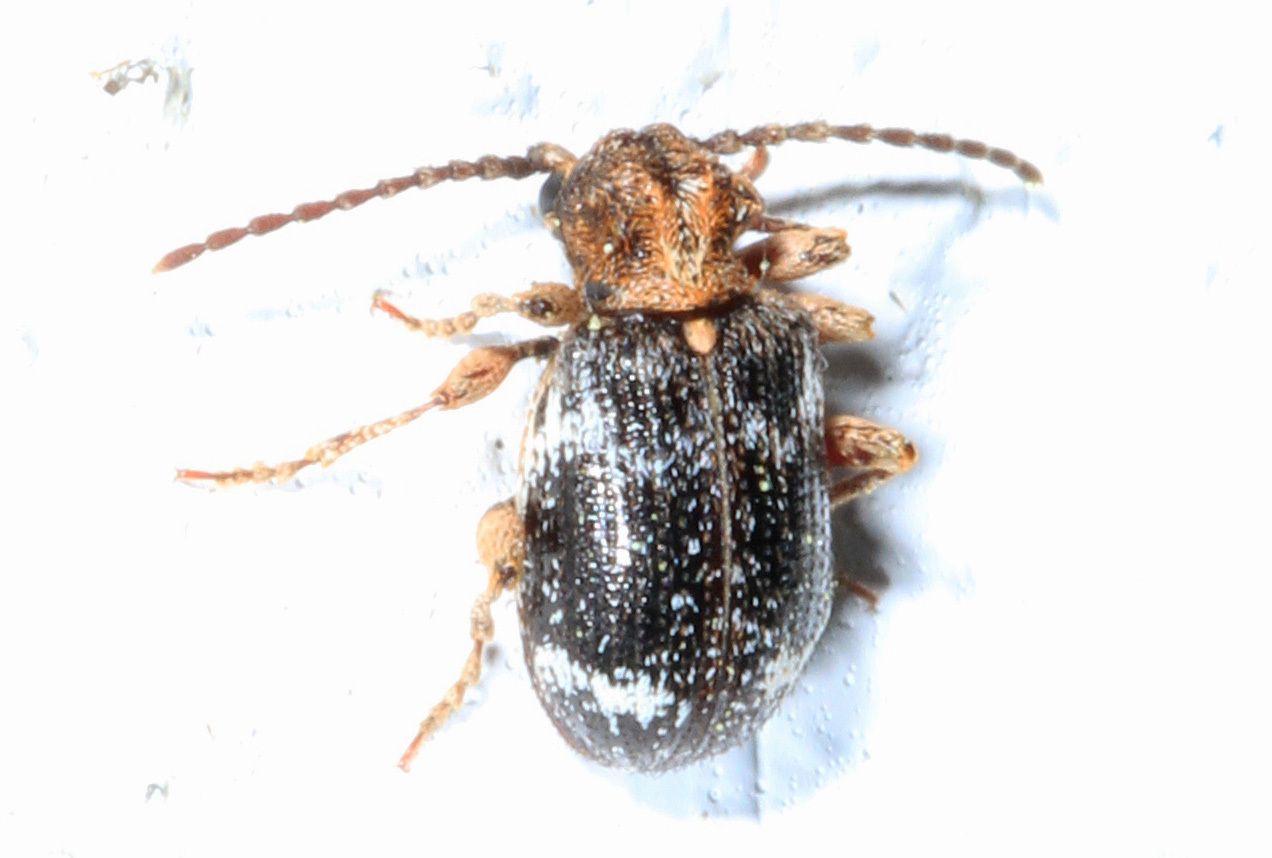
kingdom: Animalia
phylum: Arthropoda
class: Insecta
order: Coleoptera
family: Ptinidae
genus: Ptinus
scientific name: Ptinus bimaculatus
